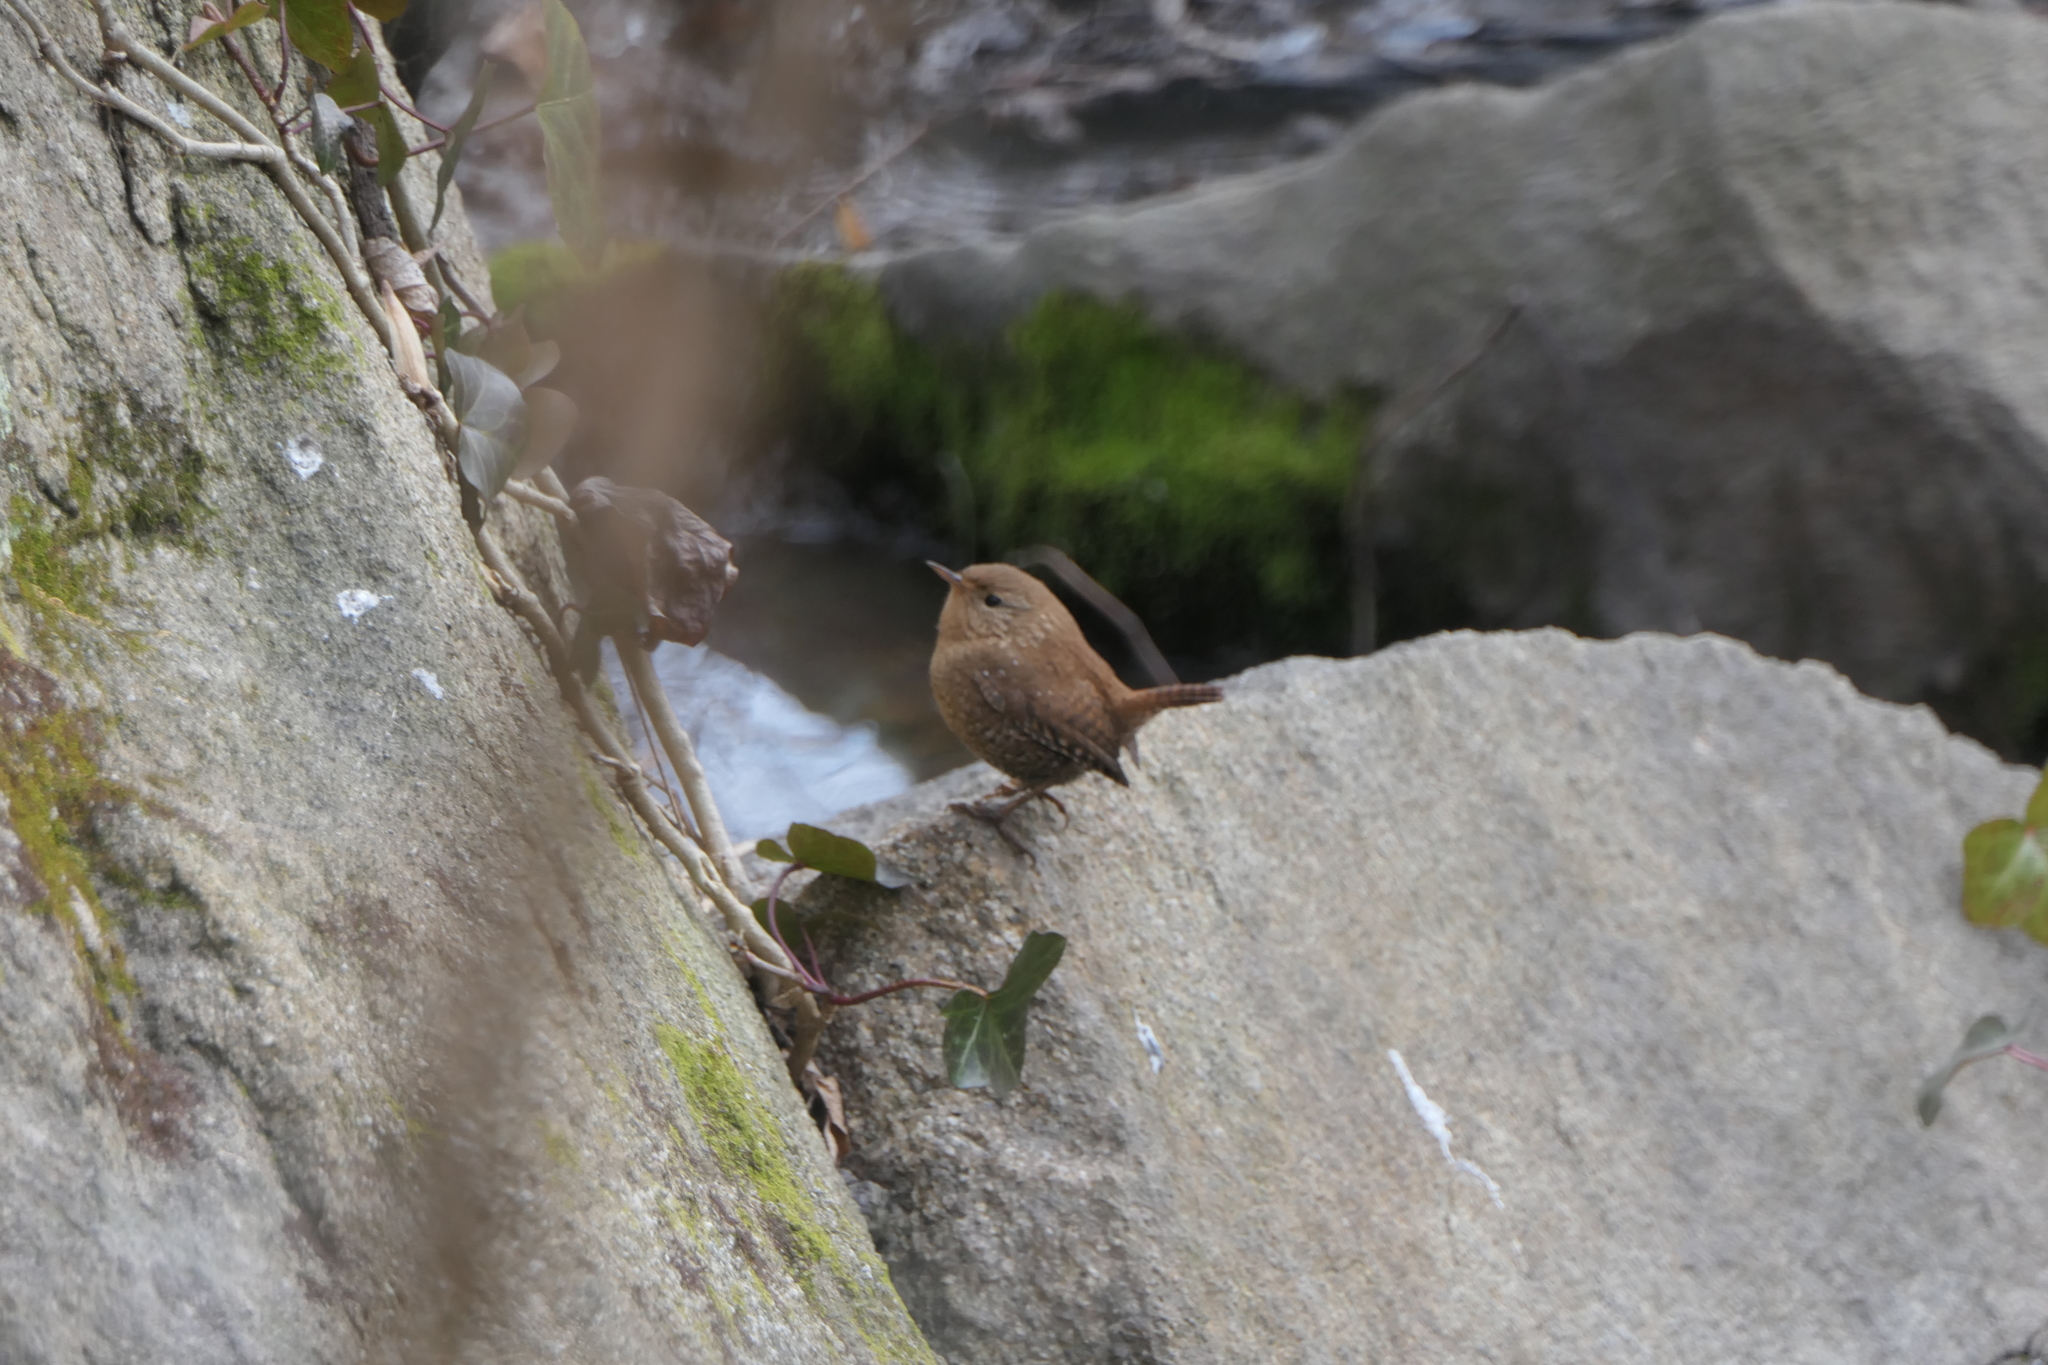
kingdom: Animalia
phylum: Chordata
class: Aves
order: Passeriformes
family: Troglodytidae
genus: Troglodytes
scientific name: Troglodytes hiemalis
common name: Winter wren
